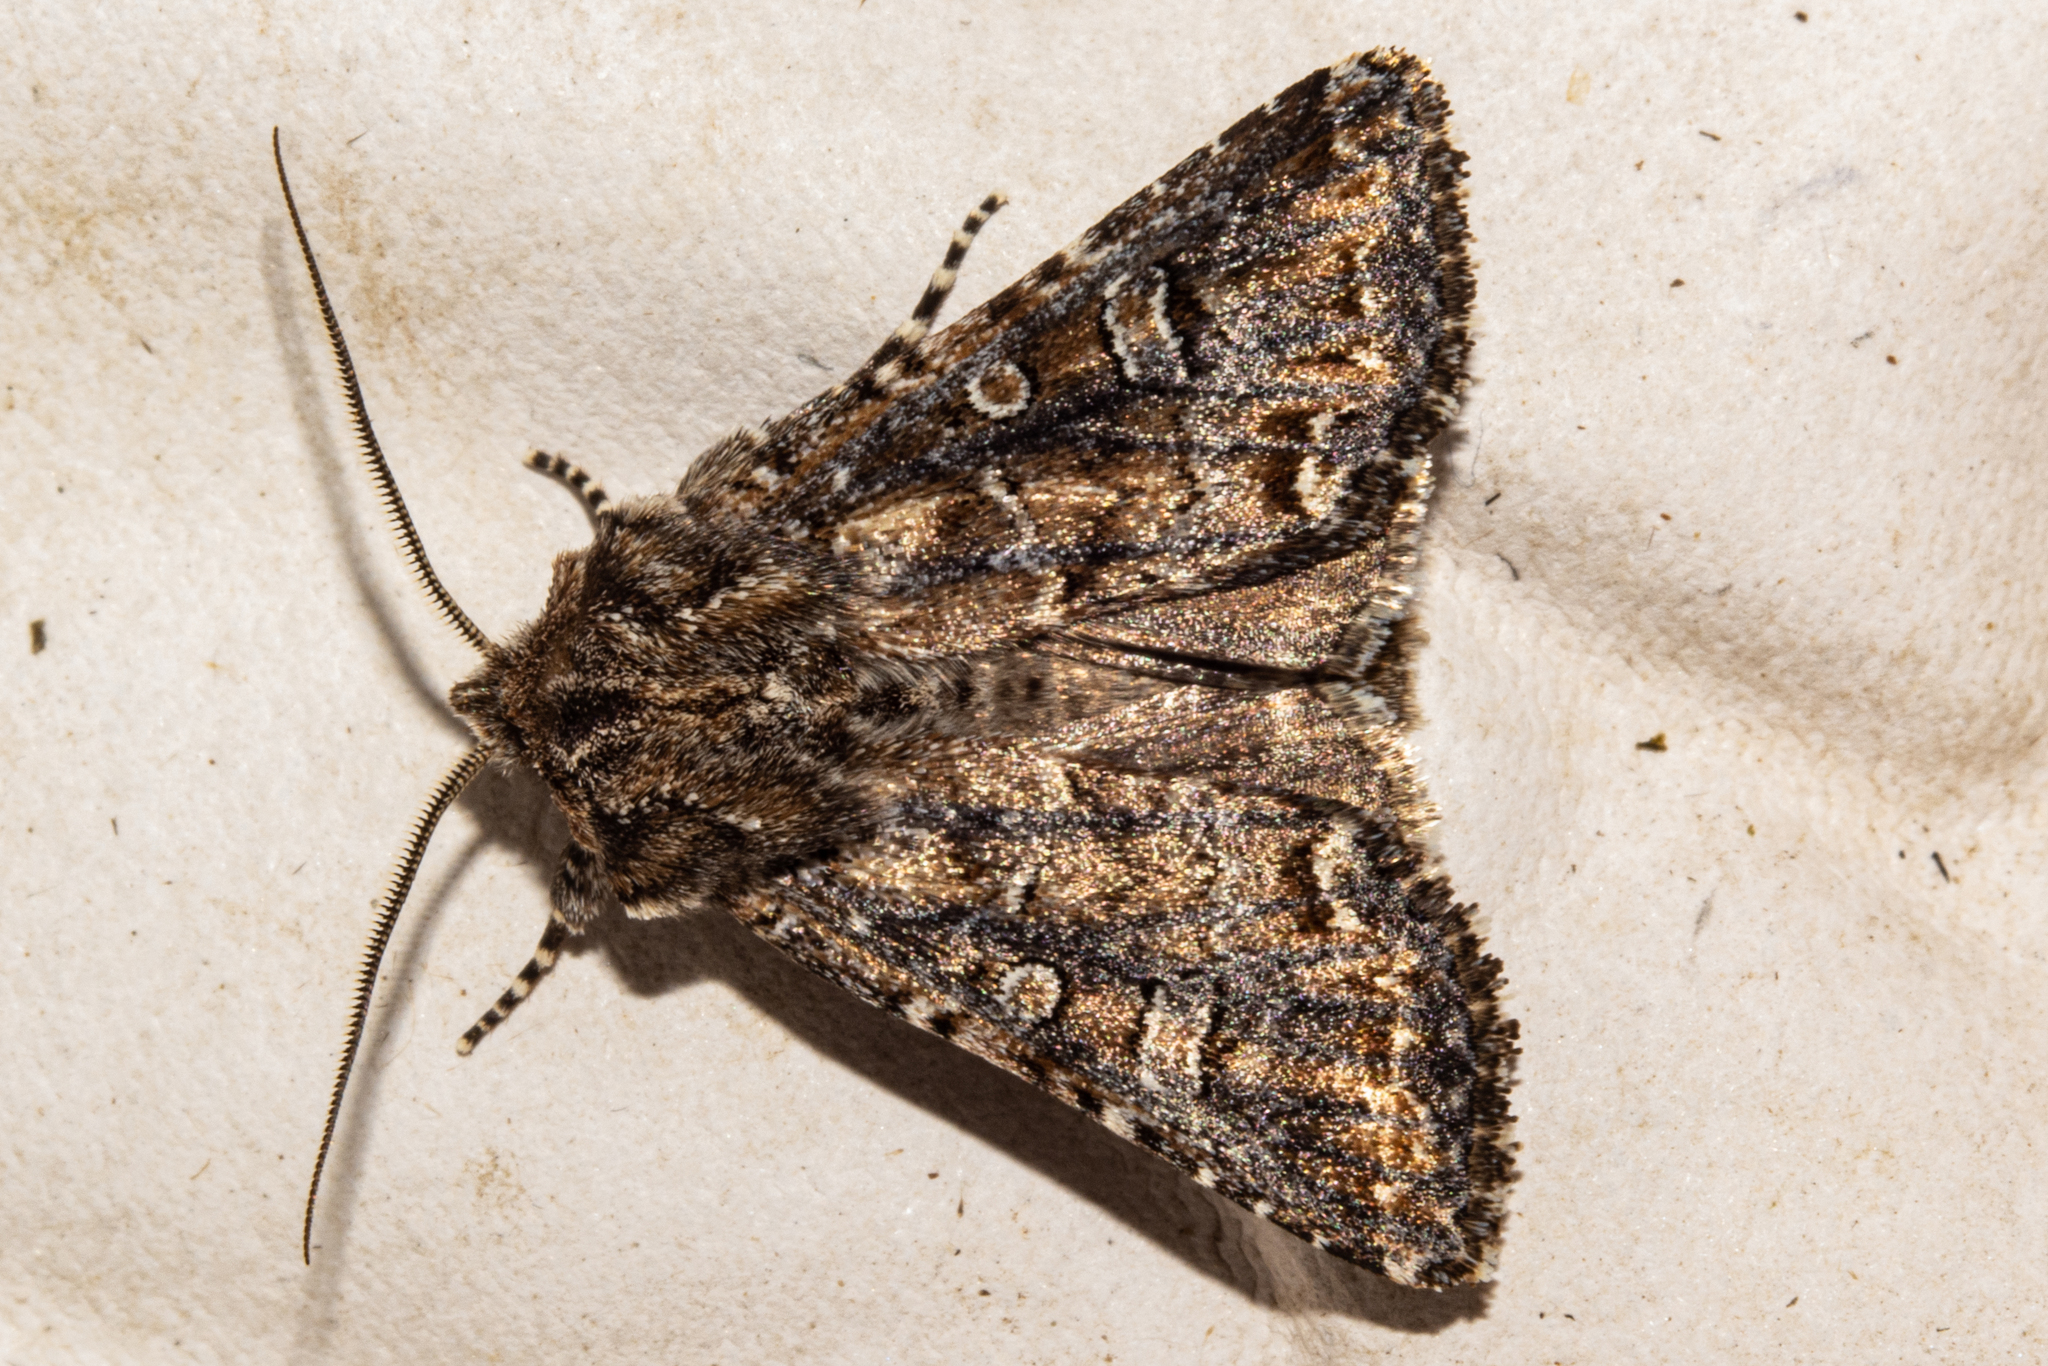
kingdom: Animalia
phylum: Arthropoda
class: Insecta
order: Lepidoptera
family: Noctuidae
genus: Ichneutica
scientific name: Ichneutica lithias
